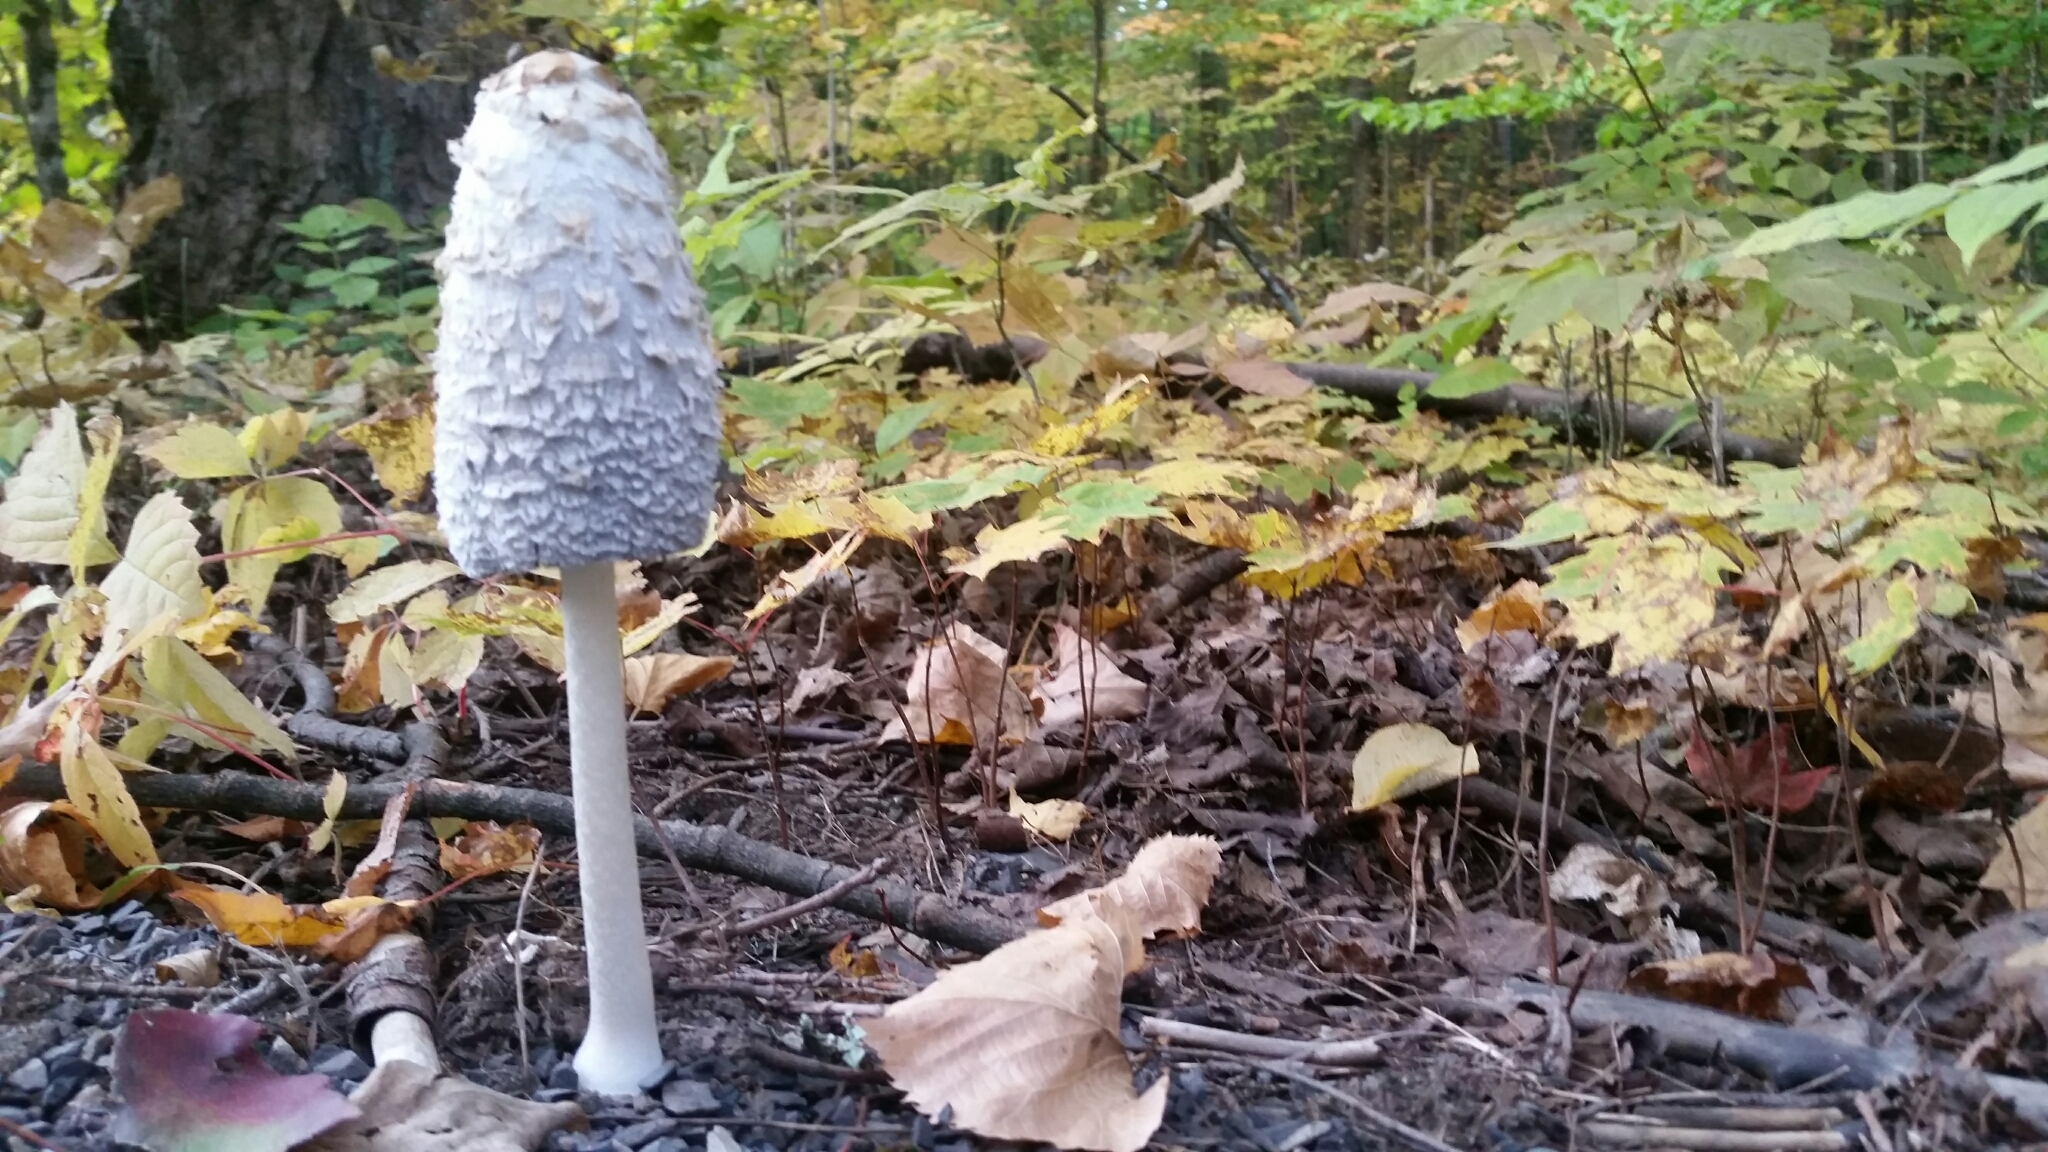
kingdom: Fungi
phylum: Basidiomycota
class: Agaricomycetes
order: Agaricales
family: Agaricaceae
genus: Coprinus
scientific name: Coprinus comatus
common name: Lawyer's wig
